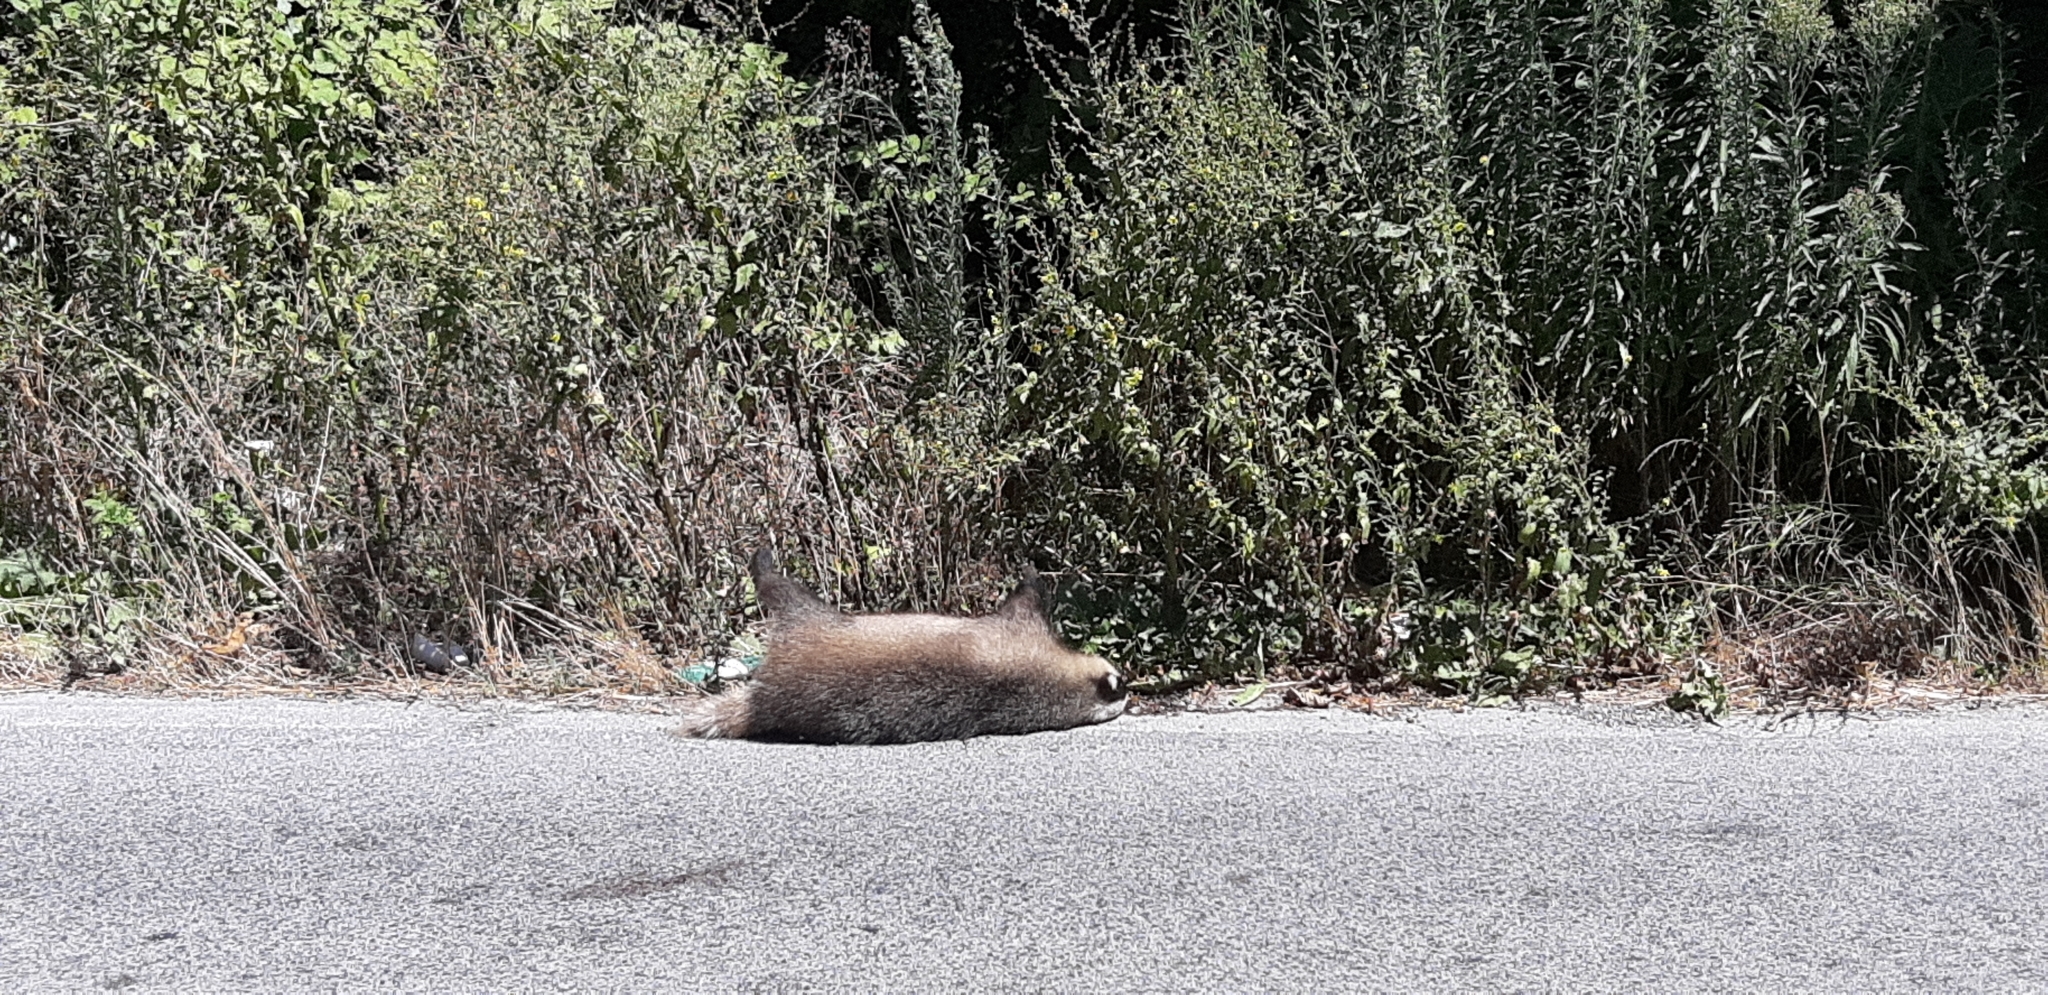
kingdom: Animalia
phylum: Chordata
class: Mammalia
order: Carnivora
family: Mustelidae
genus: Meles
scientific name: Meles meles
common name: Eurasian badger
